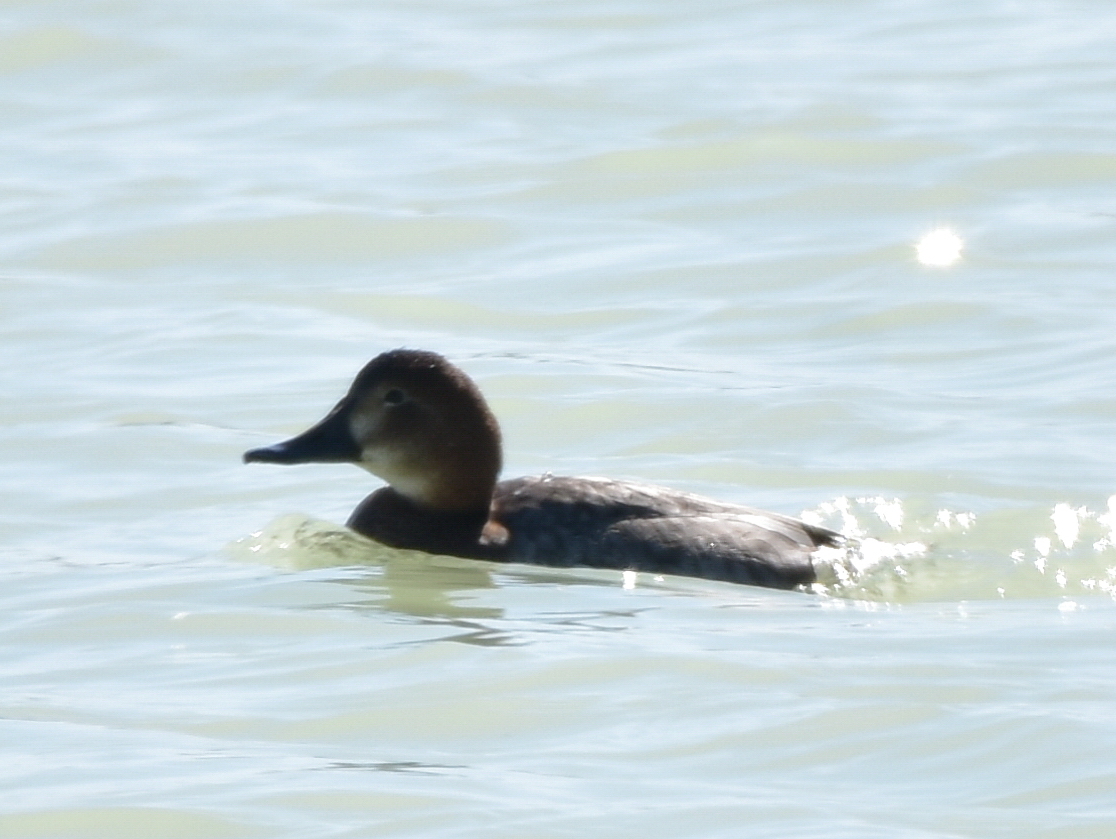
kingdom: Animalia
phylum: Chordata
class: Aves
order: Anseriformes
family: Anatidae
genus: Aythya
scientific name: Aythya ferina
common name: Common pochard
